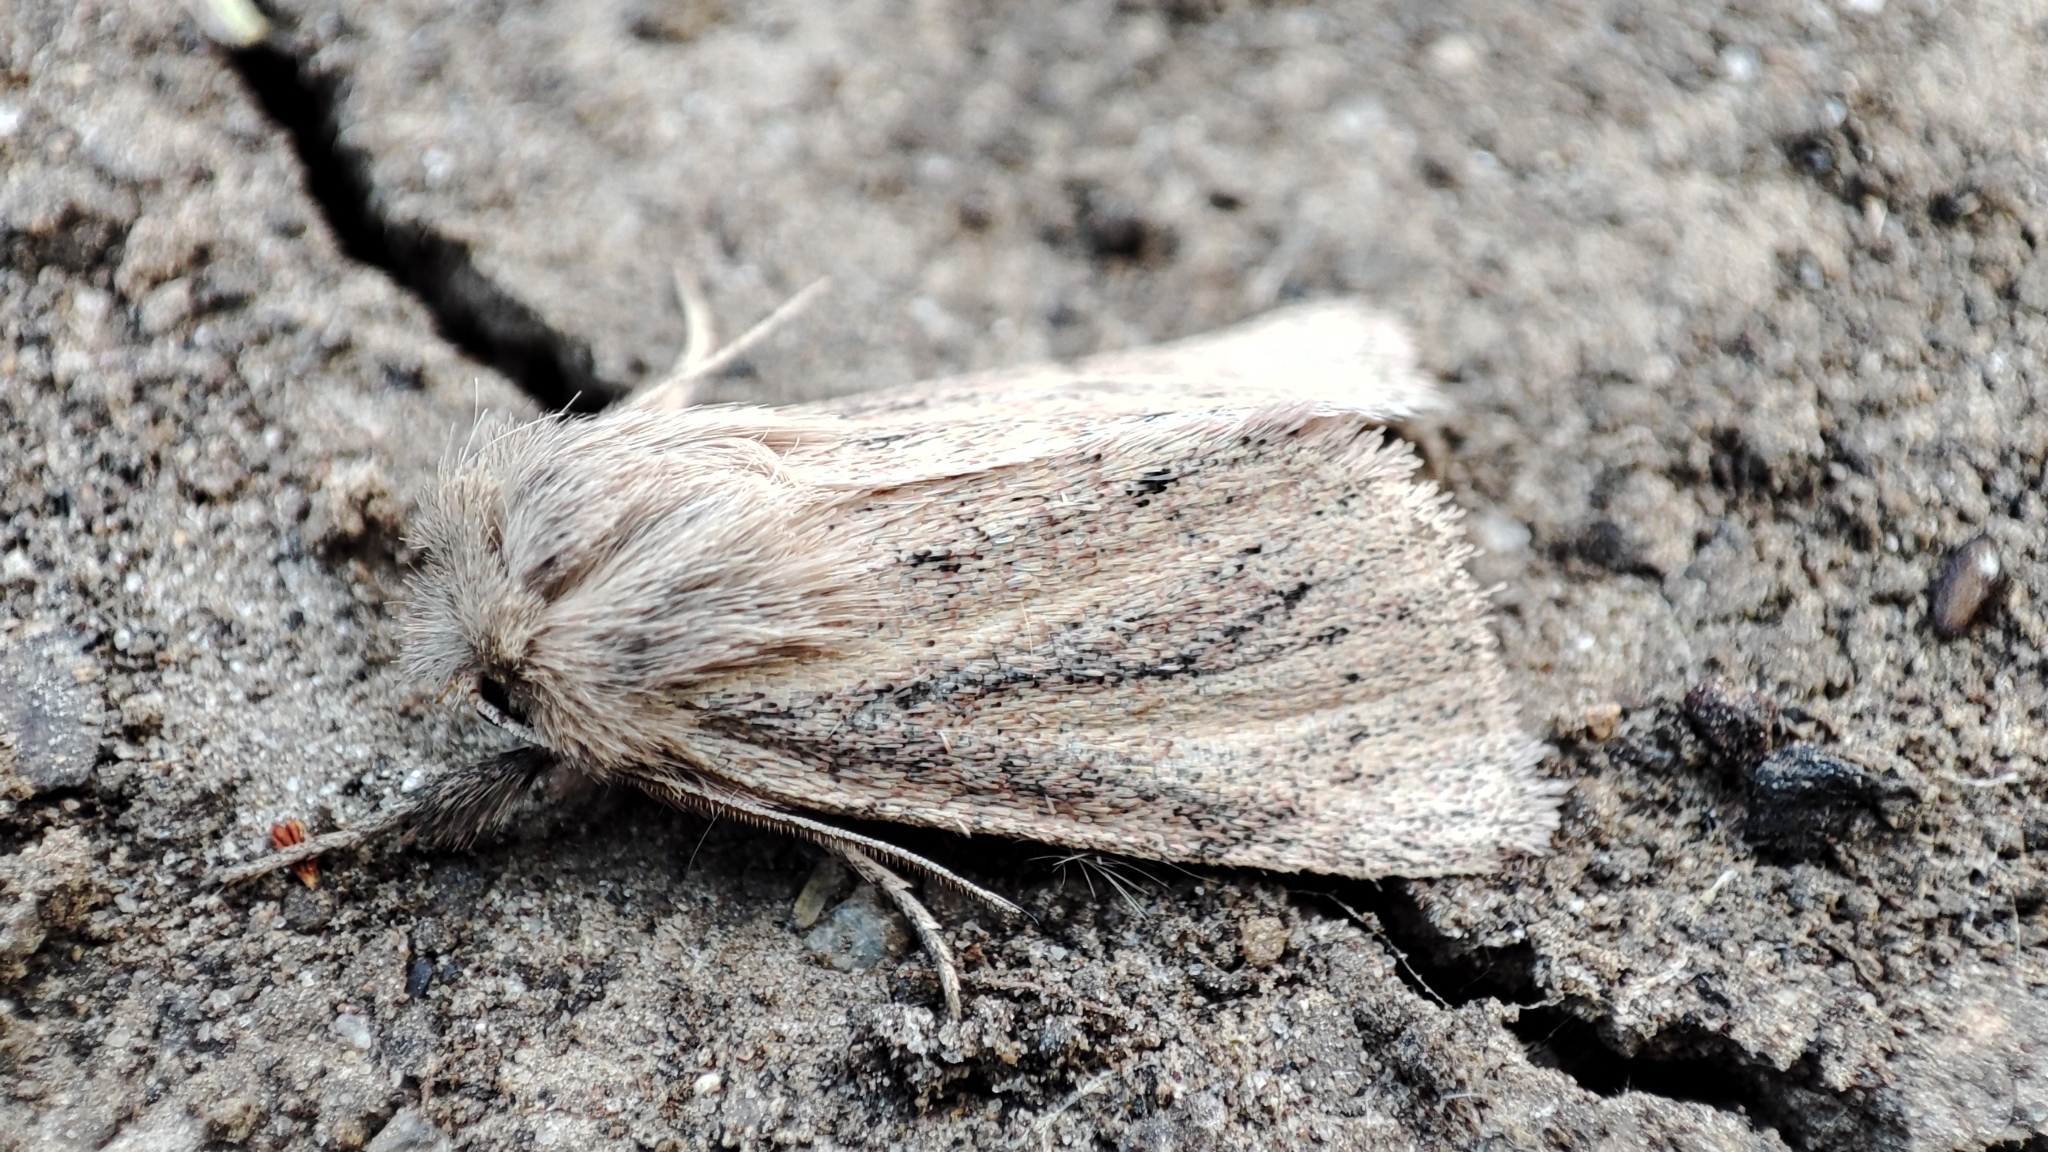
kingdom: Animalia
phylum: Arthropoda
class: Insecta
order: Lepidoptera
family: Noctuidae
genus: Denticucullus
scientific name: Denticucullus pygmina
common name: Small wainscot
